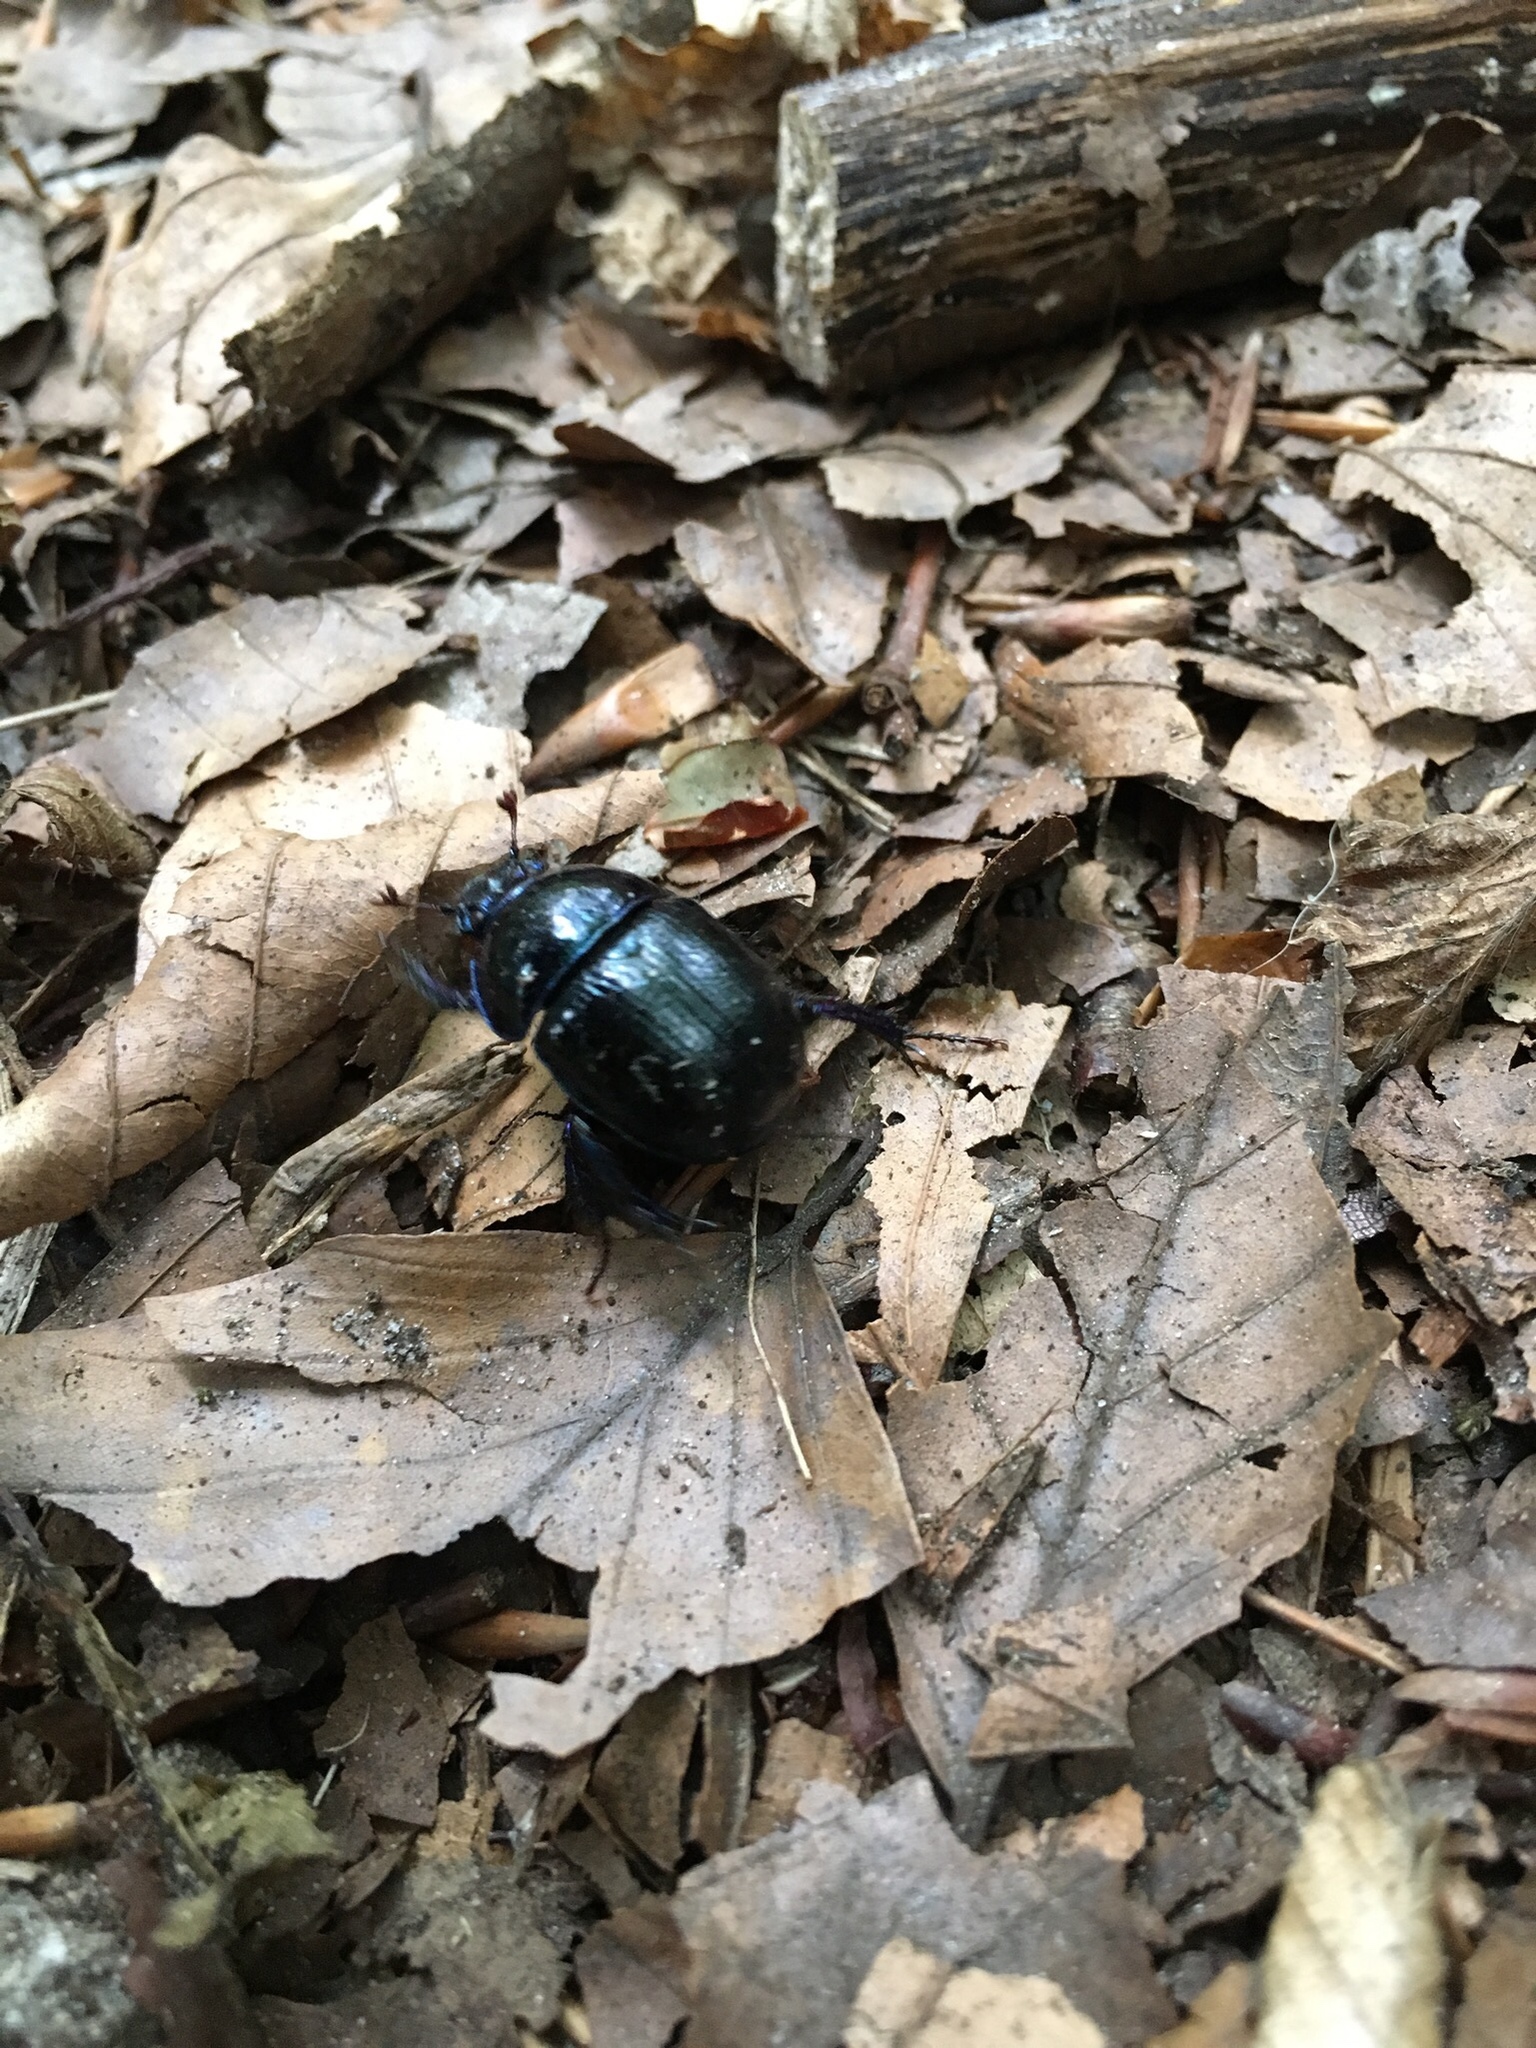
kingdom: Animalia
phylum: Arthropoda
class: Insecta
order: Coleoptera
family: Geotrupidae
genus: Anoplotrupes
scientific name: Anoplotrupes stercorosus
